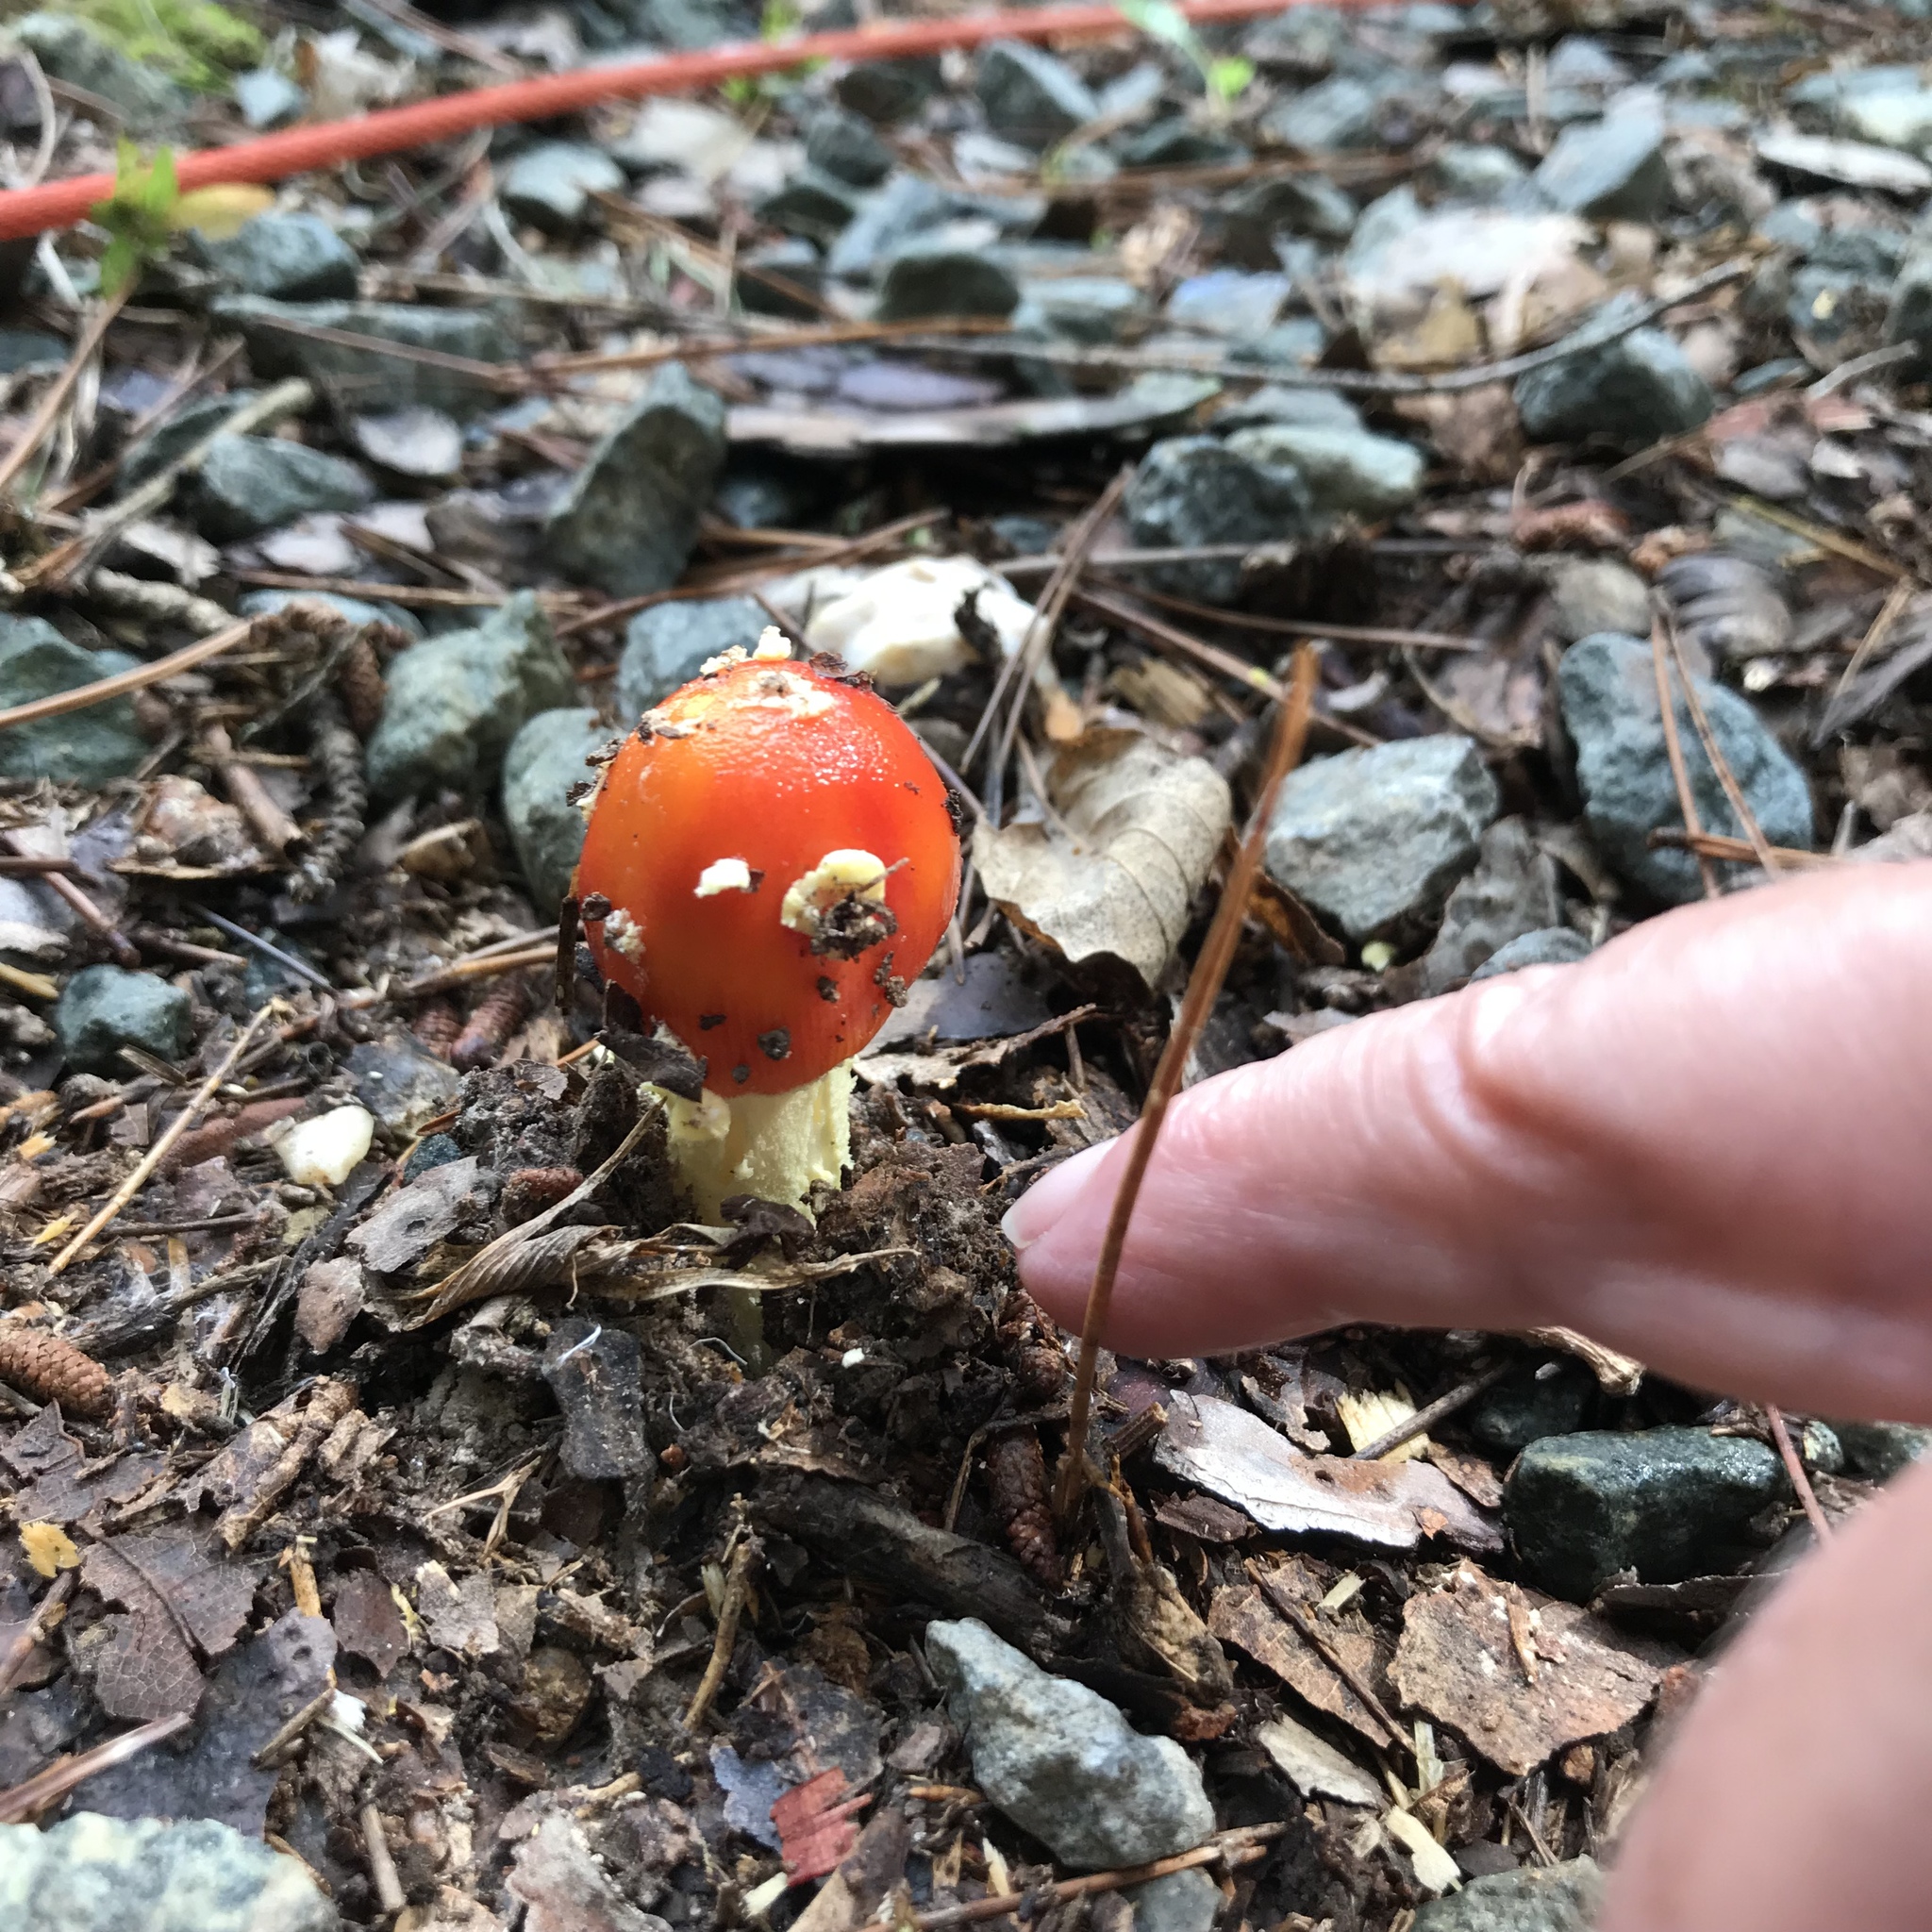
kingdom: Fungi
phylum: Basidiomycota
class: Agaricomycetes
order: Agaricales
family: Amanitaceae
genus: Amanita
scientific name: Amanita parcivolvata
